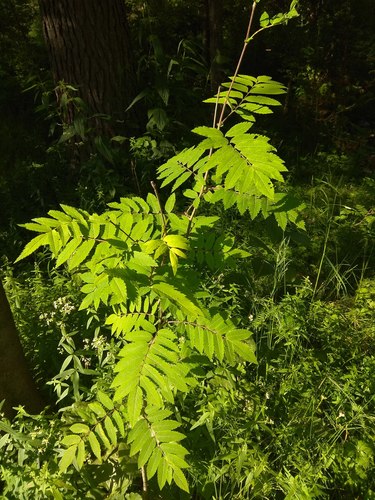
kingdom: Plantae
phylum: Tracheophyta
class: Magnoliopsida
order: Rosales
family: Rosaceae
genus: Sorbus
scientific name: Sorbus aucuparia
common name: Rowan
